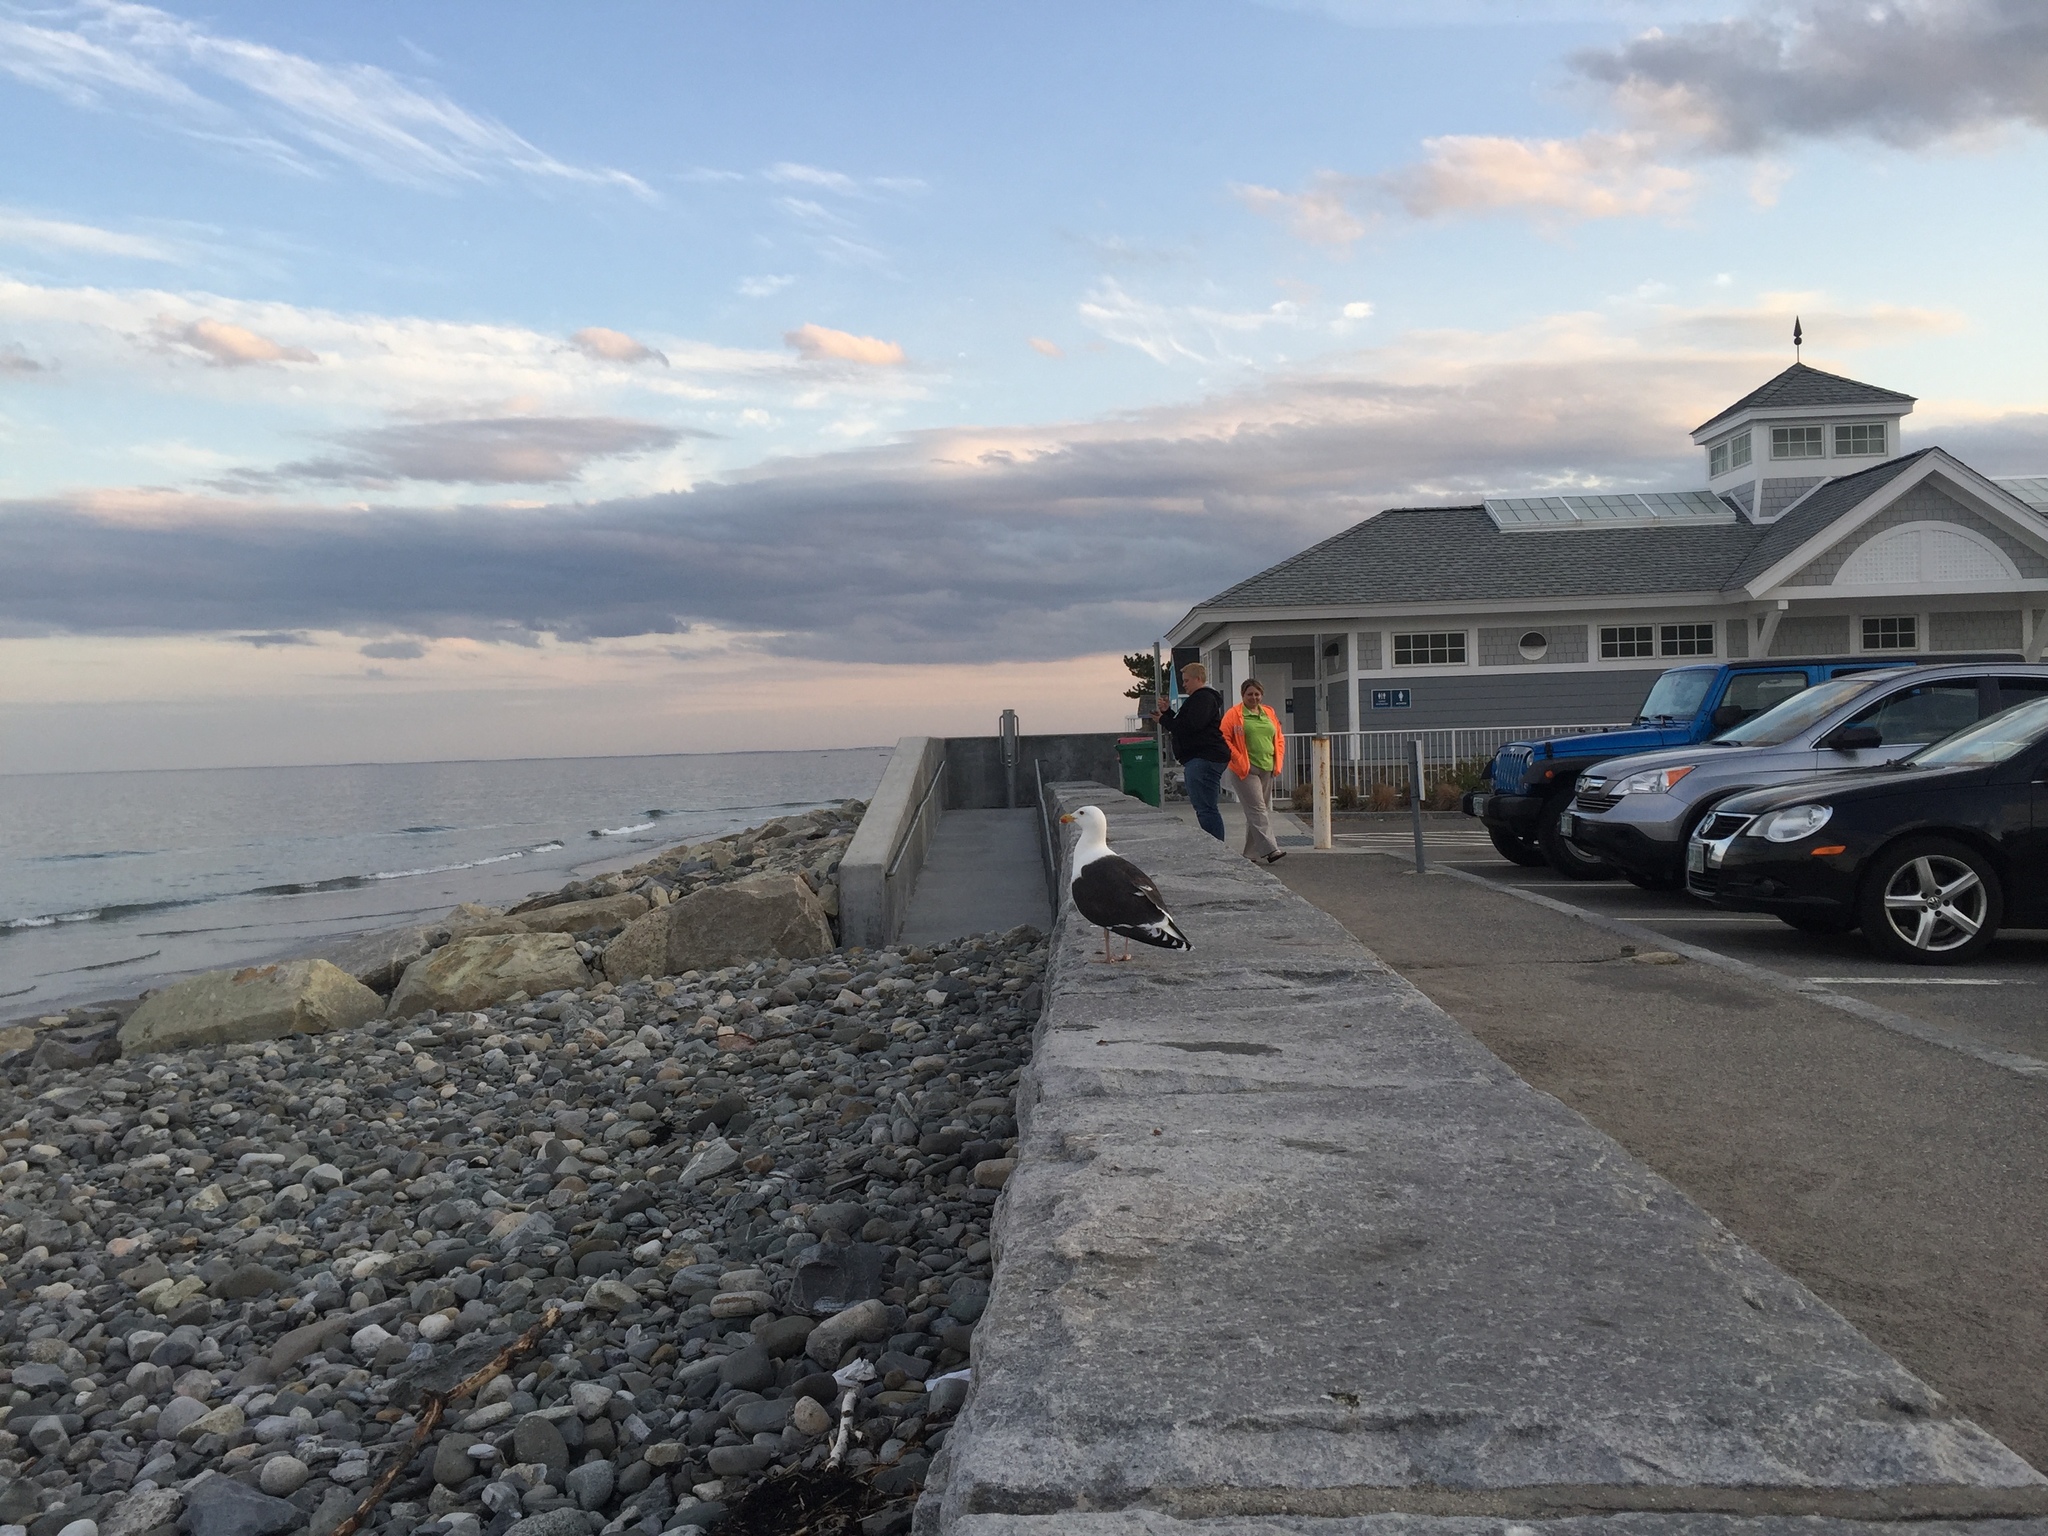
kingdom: Animalia
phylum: Chordata
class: Aves
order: Charadriiformes
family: Laridae
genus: Larus
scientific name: Larus marinus
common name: Great black-backed gull
